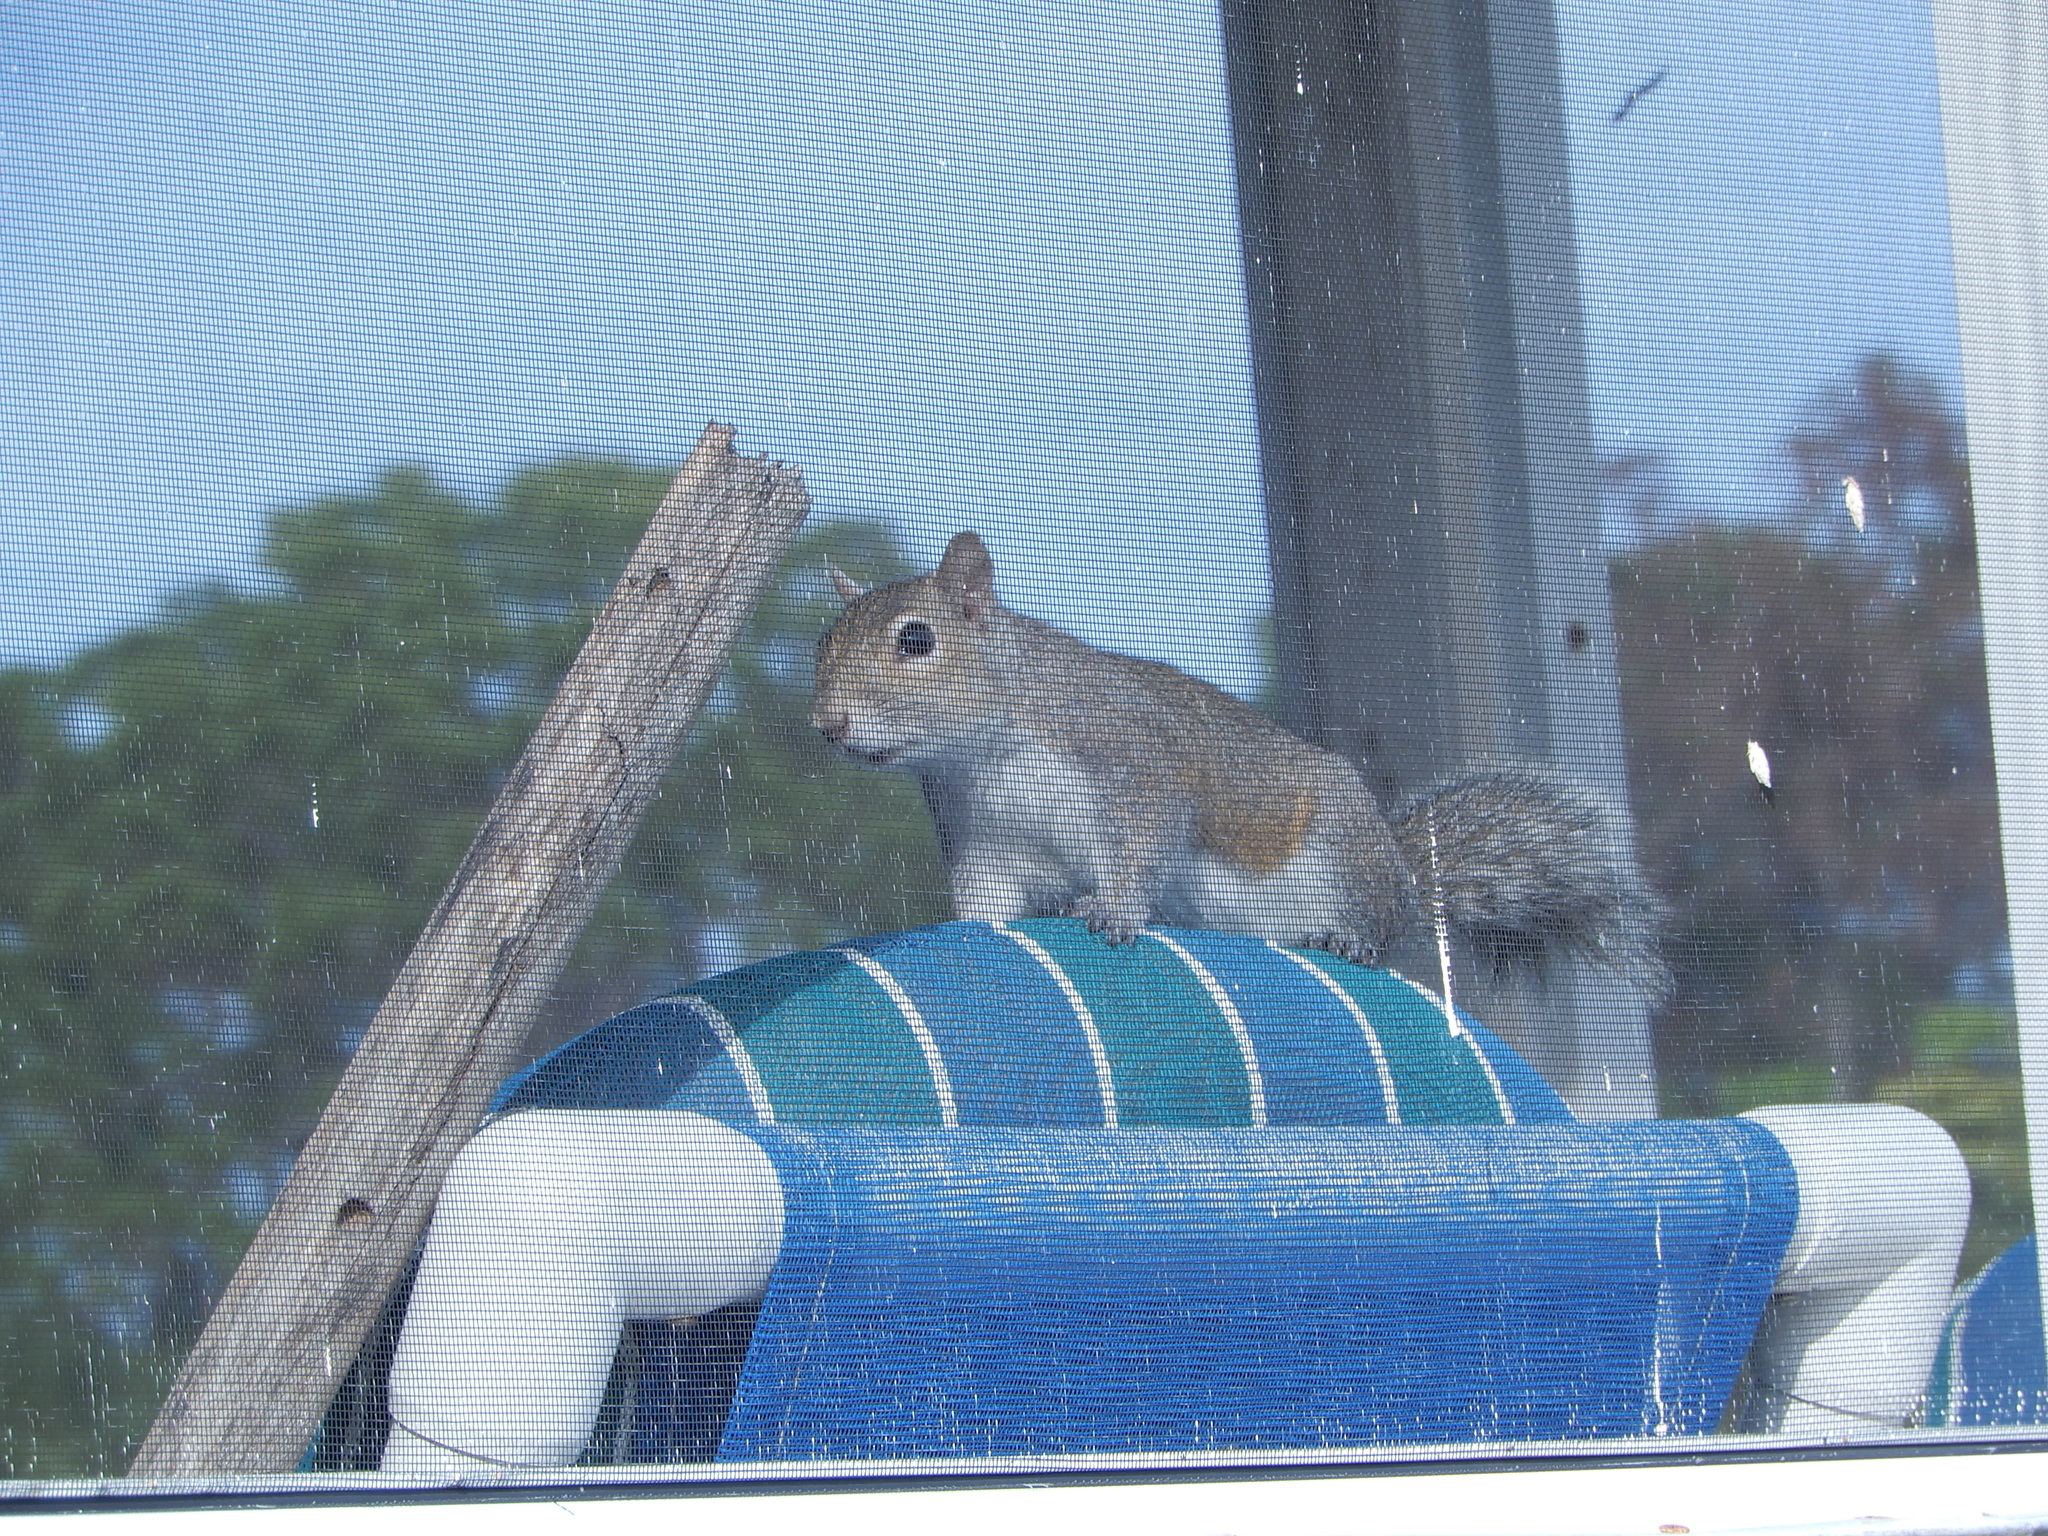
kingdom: Animalia
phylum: Chordata
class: Mammalia
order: Rodentia
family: Sciuridae
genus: Sciurus
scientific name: Sciurus carolinensis
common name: Eastern gray squirrel
